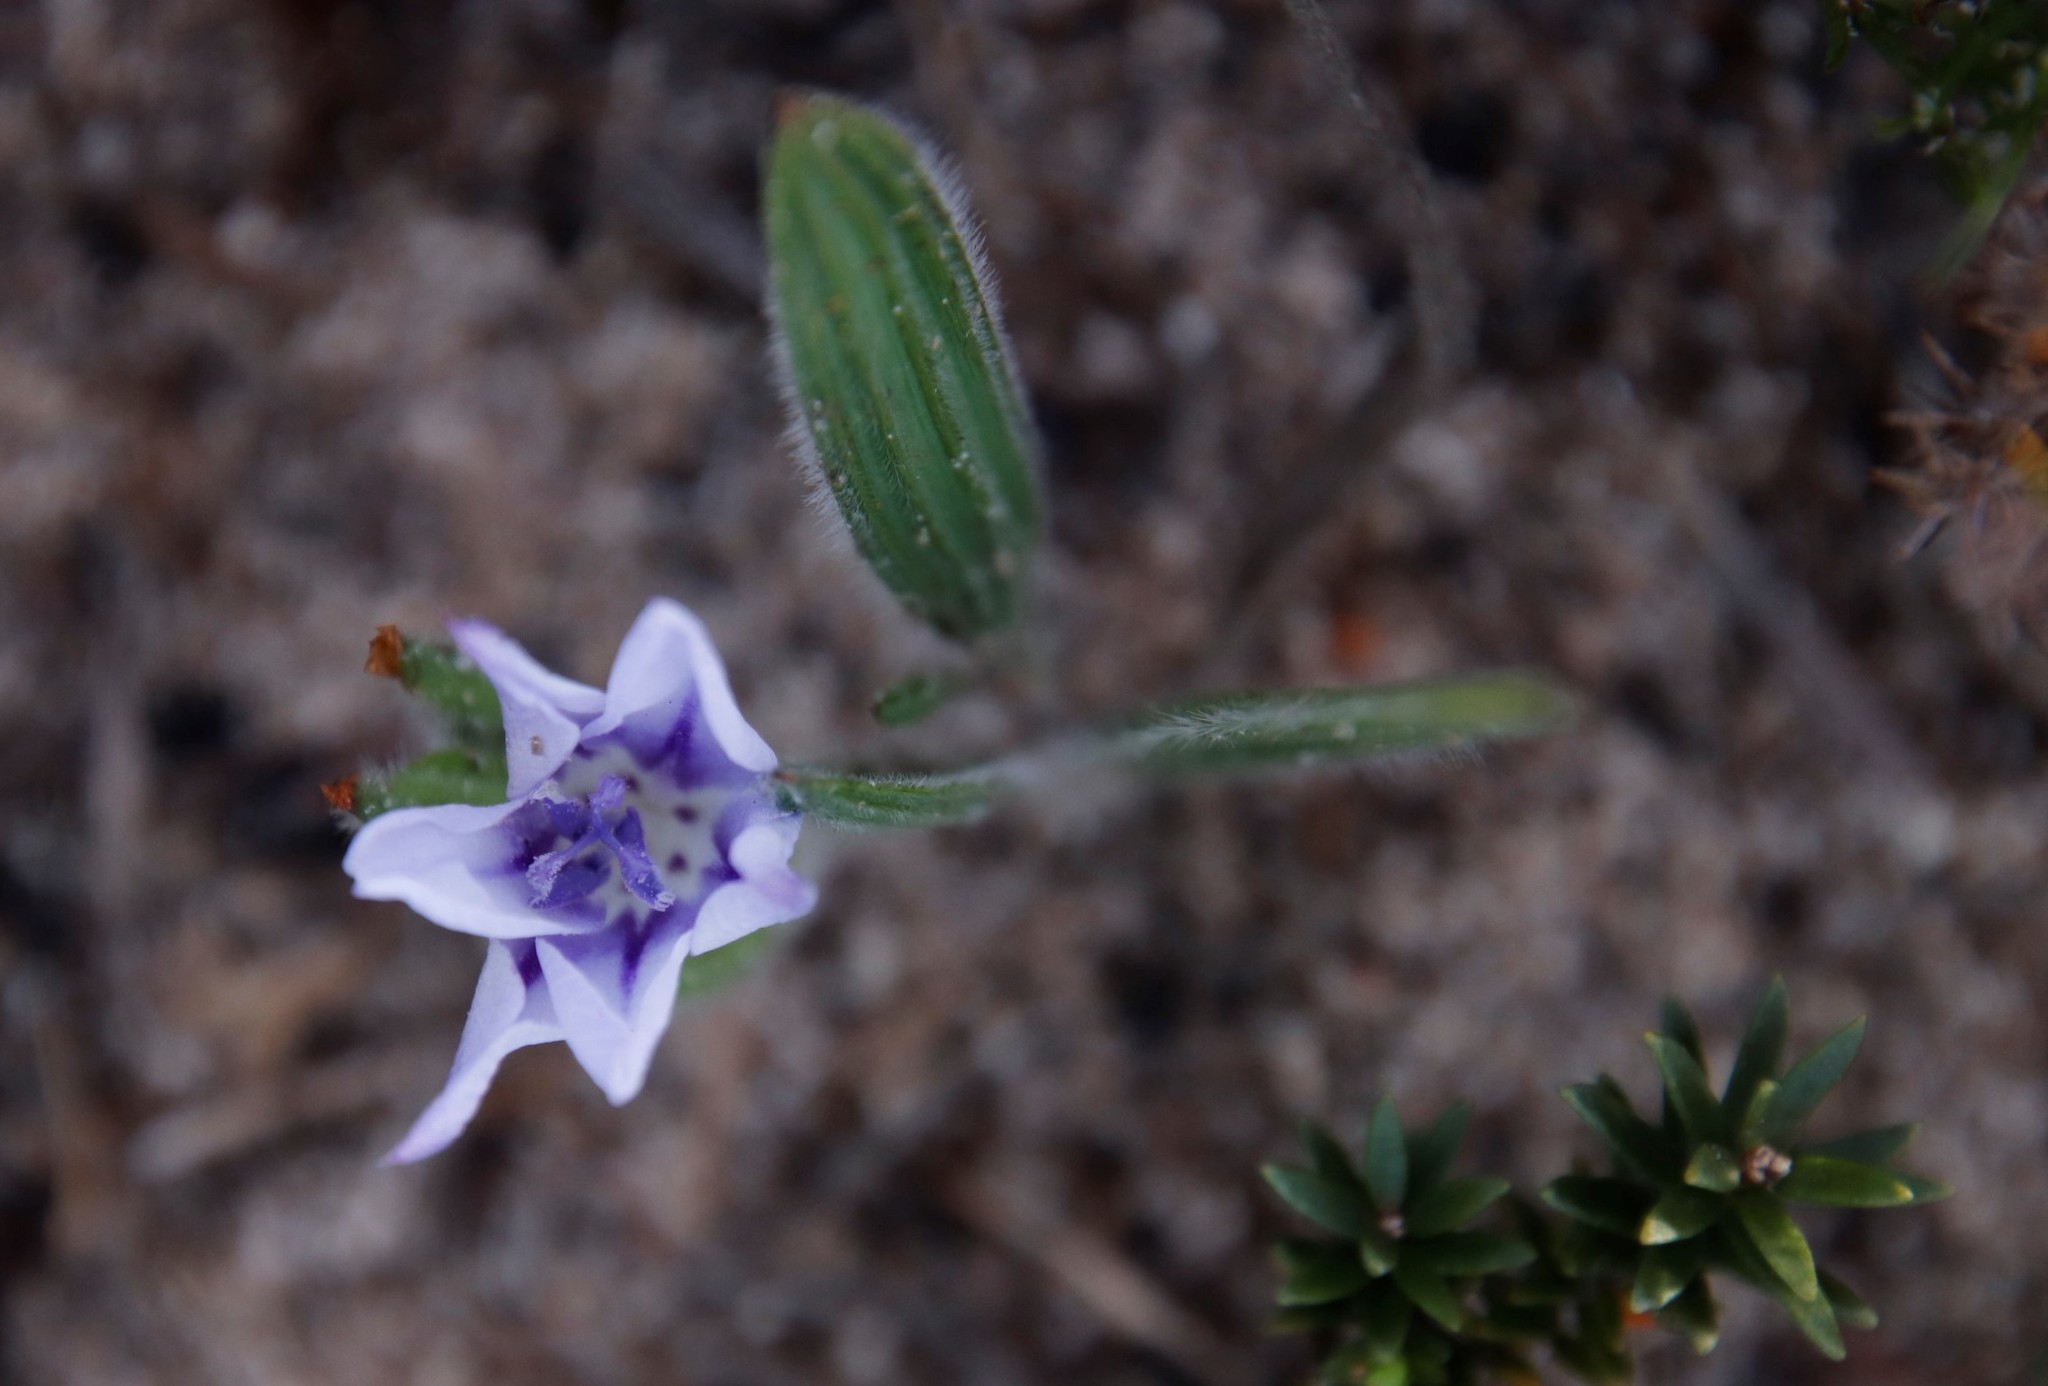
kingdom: Plantae
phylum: Tracheophyta
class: Liliopsida
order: Asparagales
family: Iridaceae
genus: Babiana
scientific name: Babiana villosula
